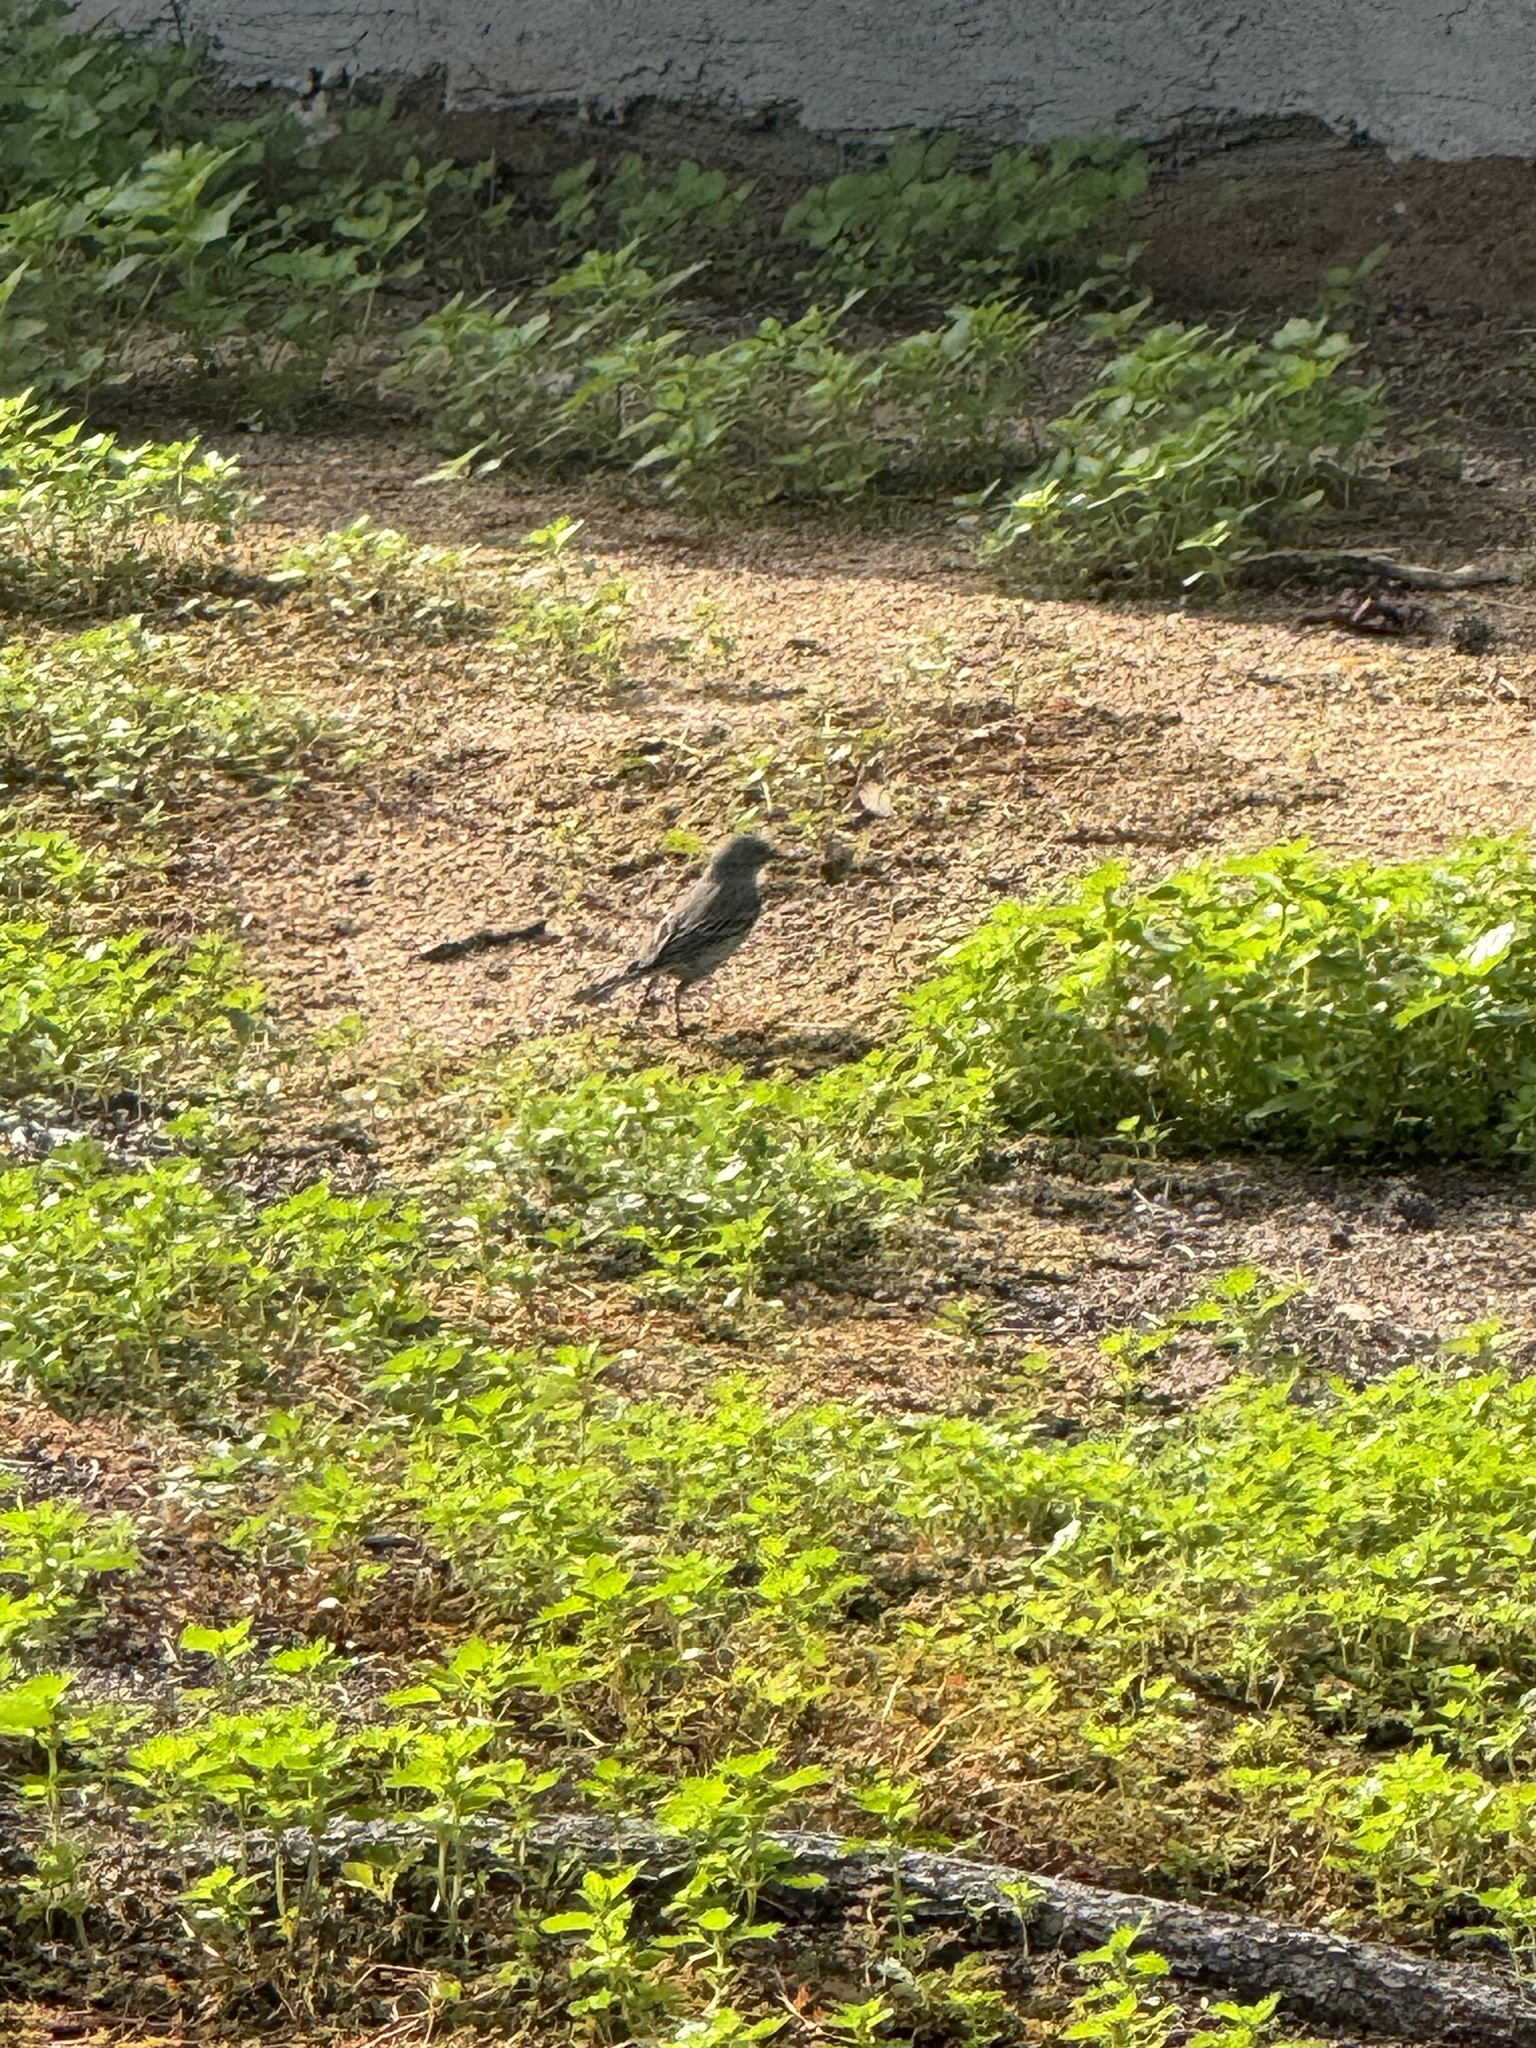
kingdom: Animalia
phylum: Chordata
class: Aves
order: Passeriformes
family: Parulidae
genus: Setophaga
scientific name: Setophaga auduboni
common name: Audubon's warbler
